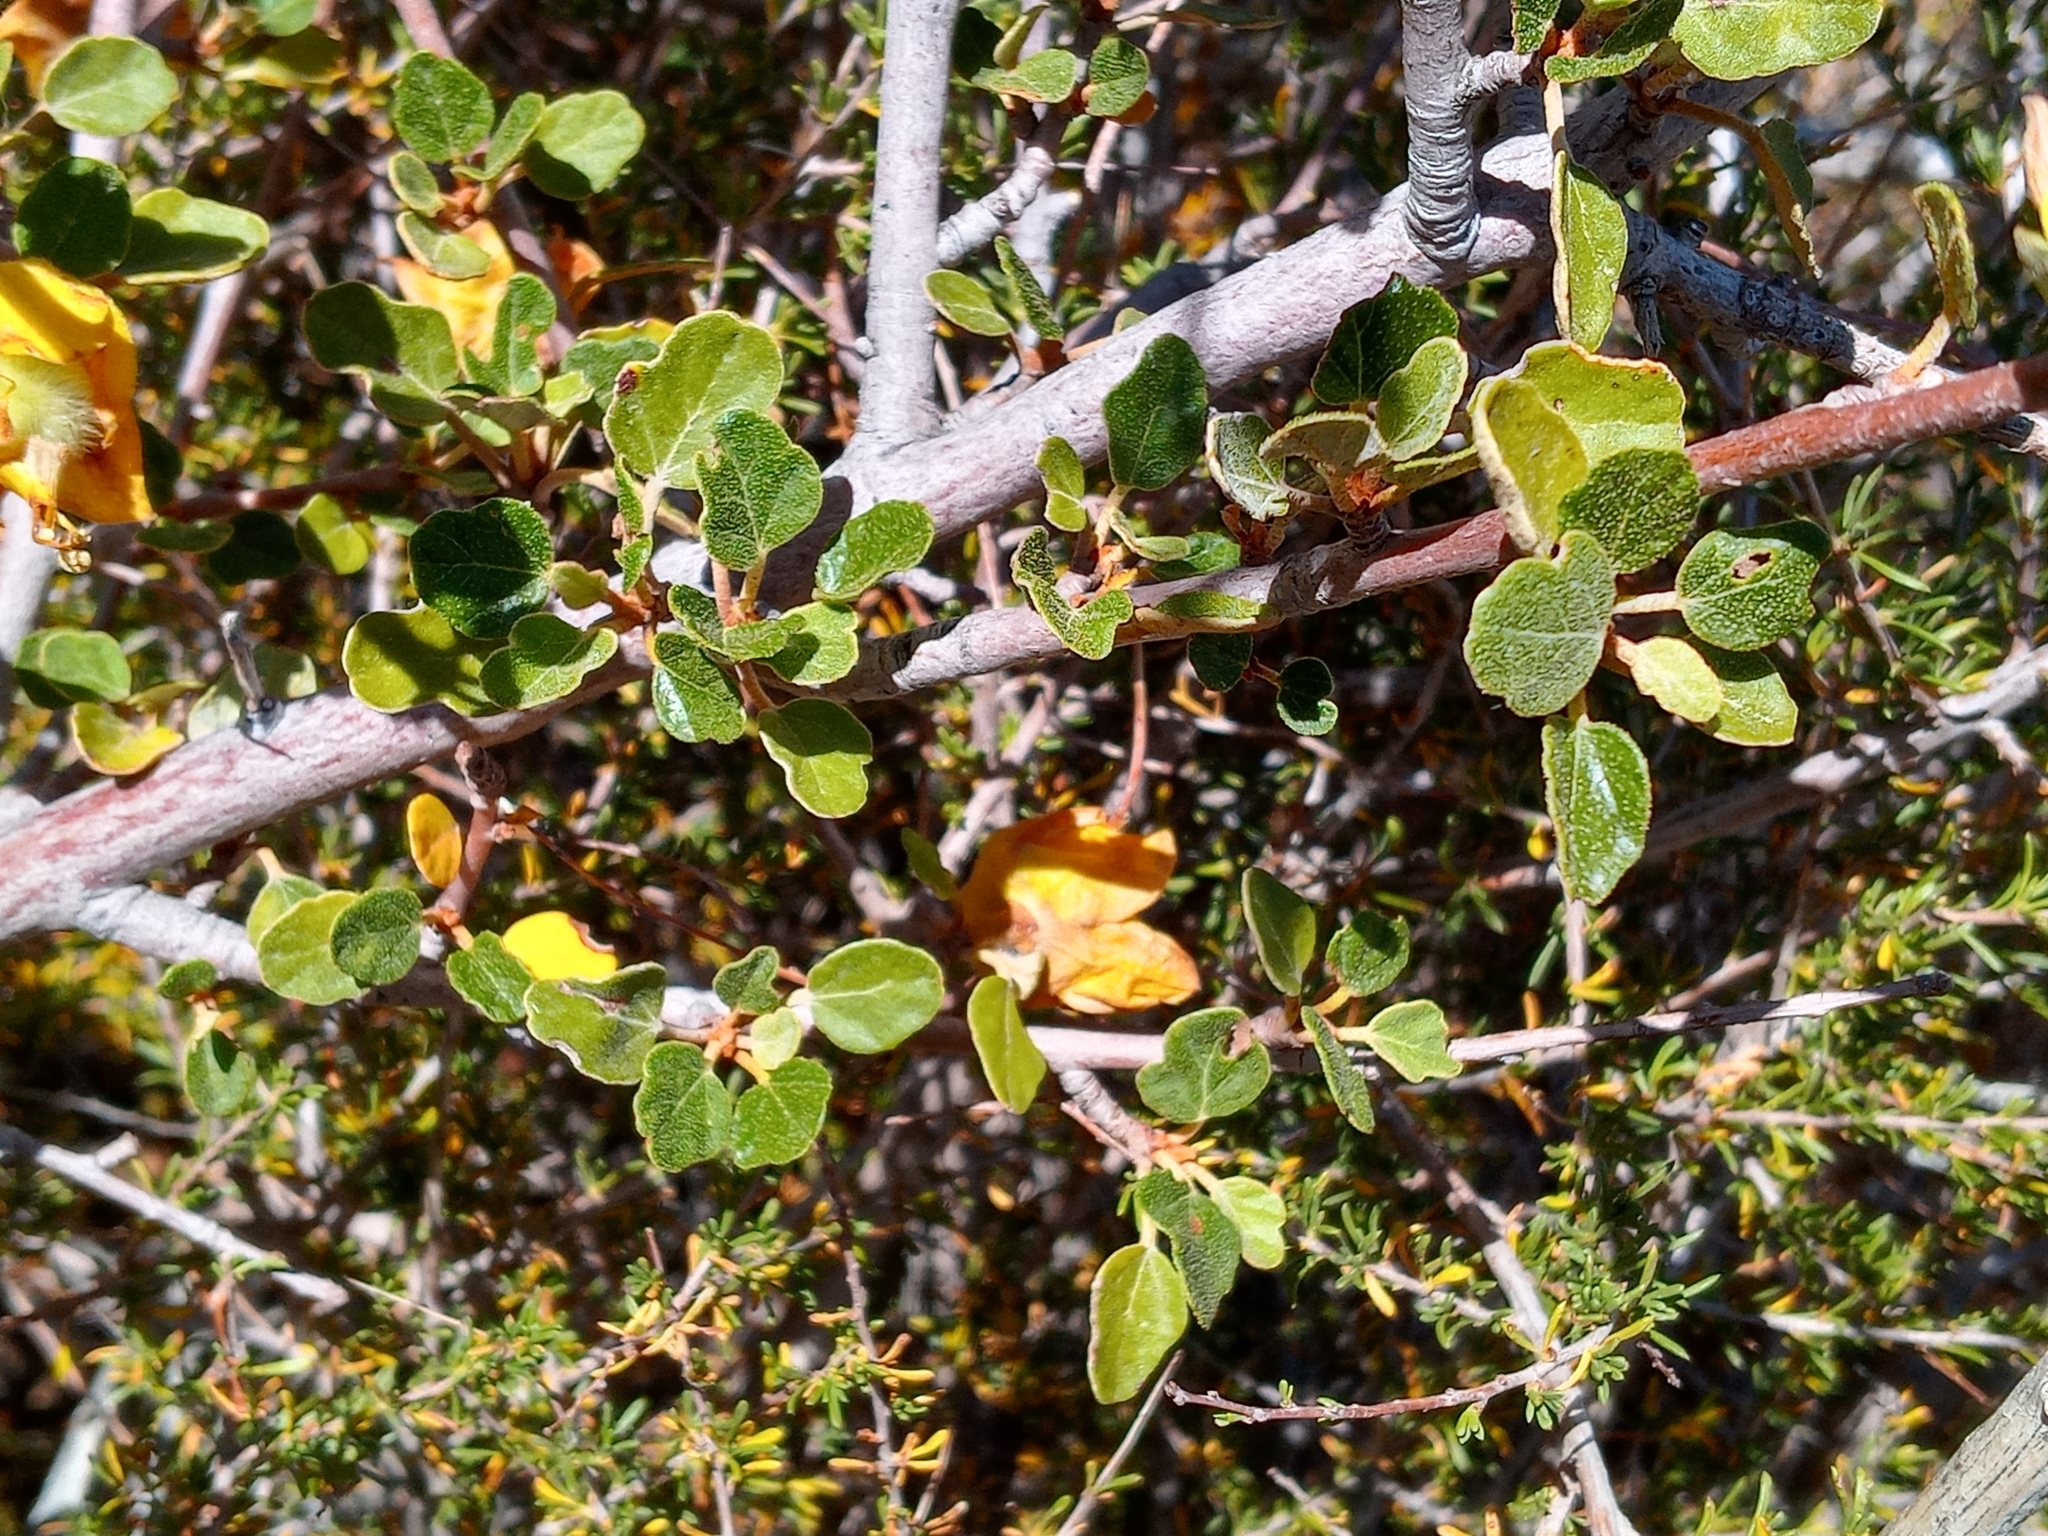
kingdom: Plantae
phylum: Tracheophyta
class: Magnoliopsida
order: Malvales
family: Malvaceae
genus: Fremontodendron
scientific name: Fremontodendron californicum
